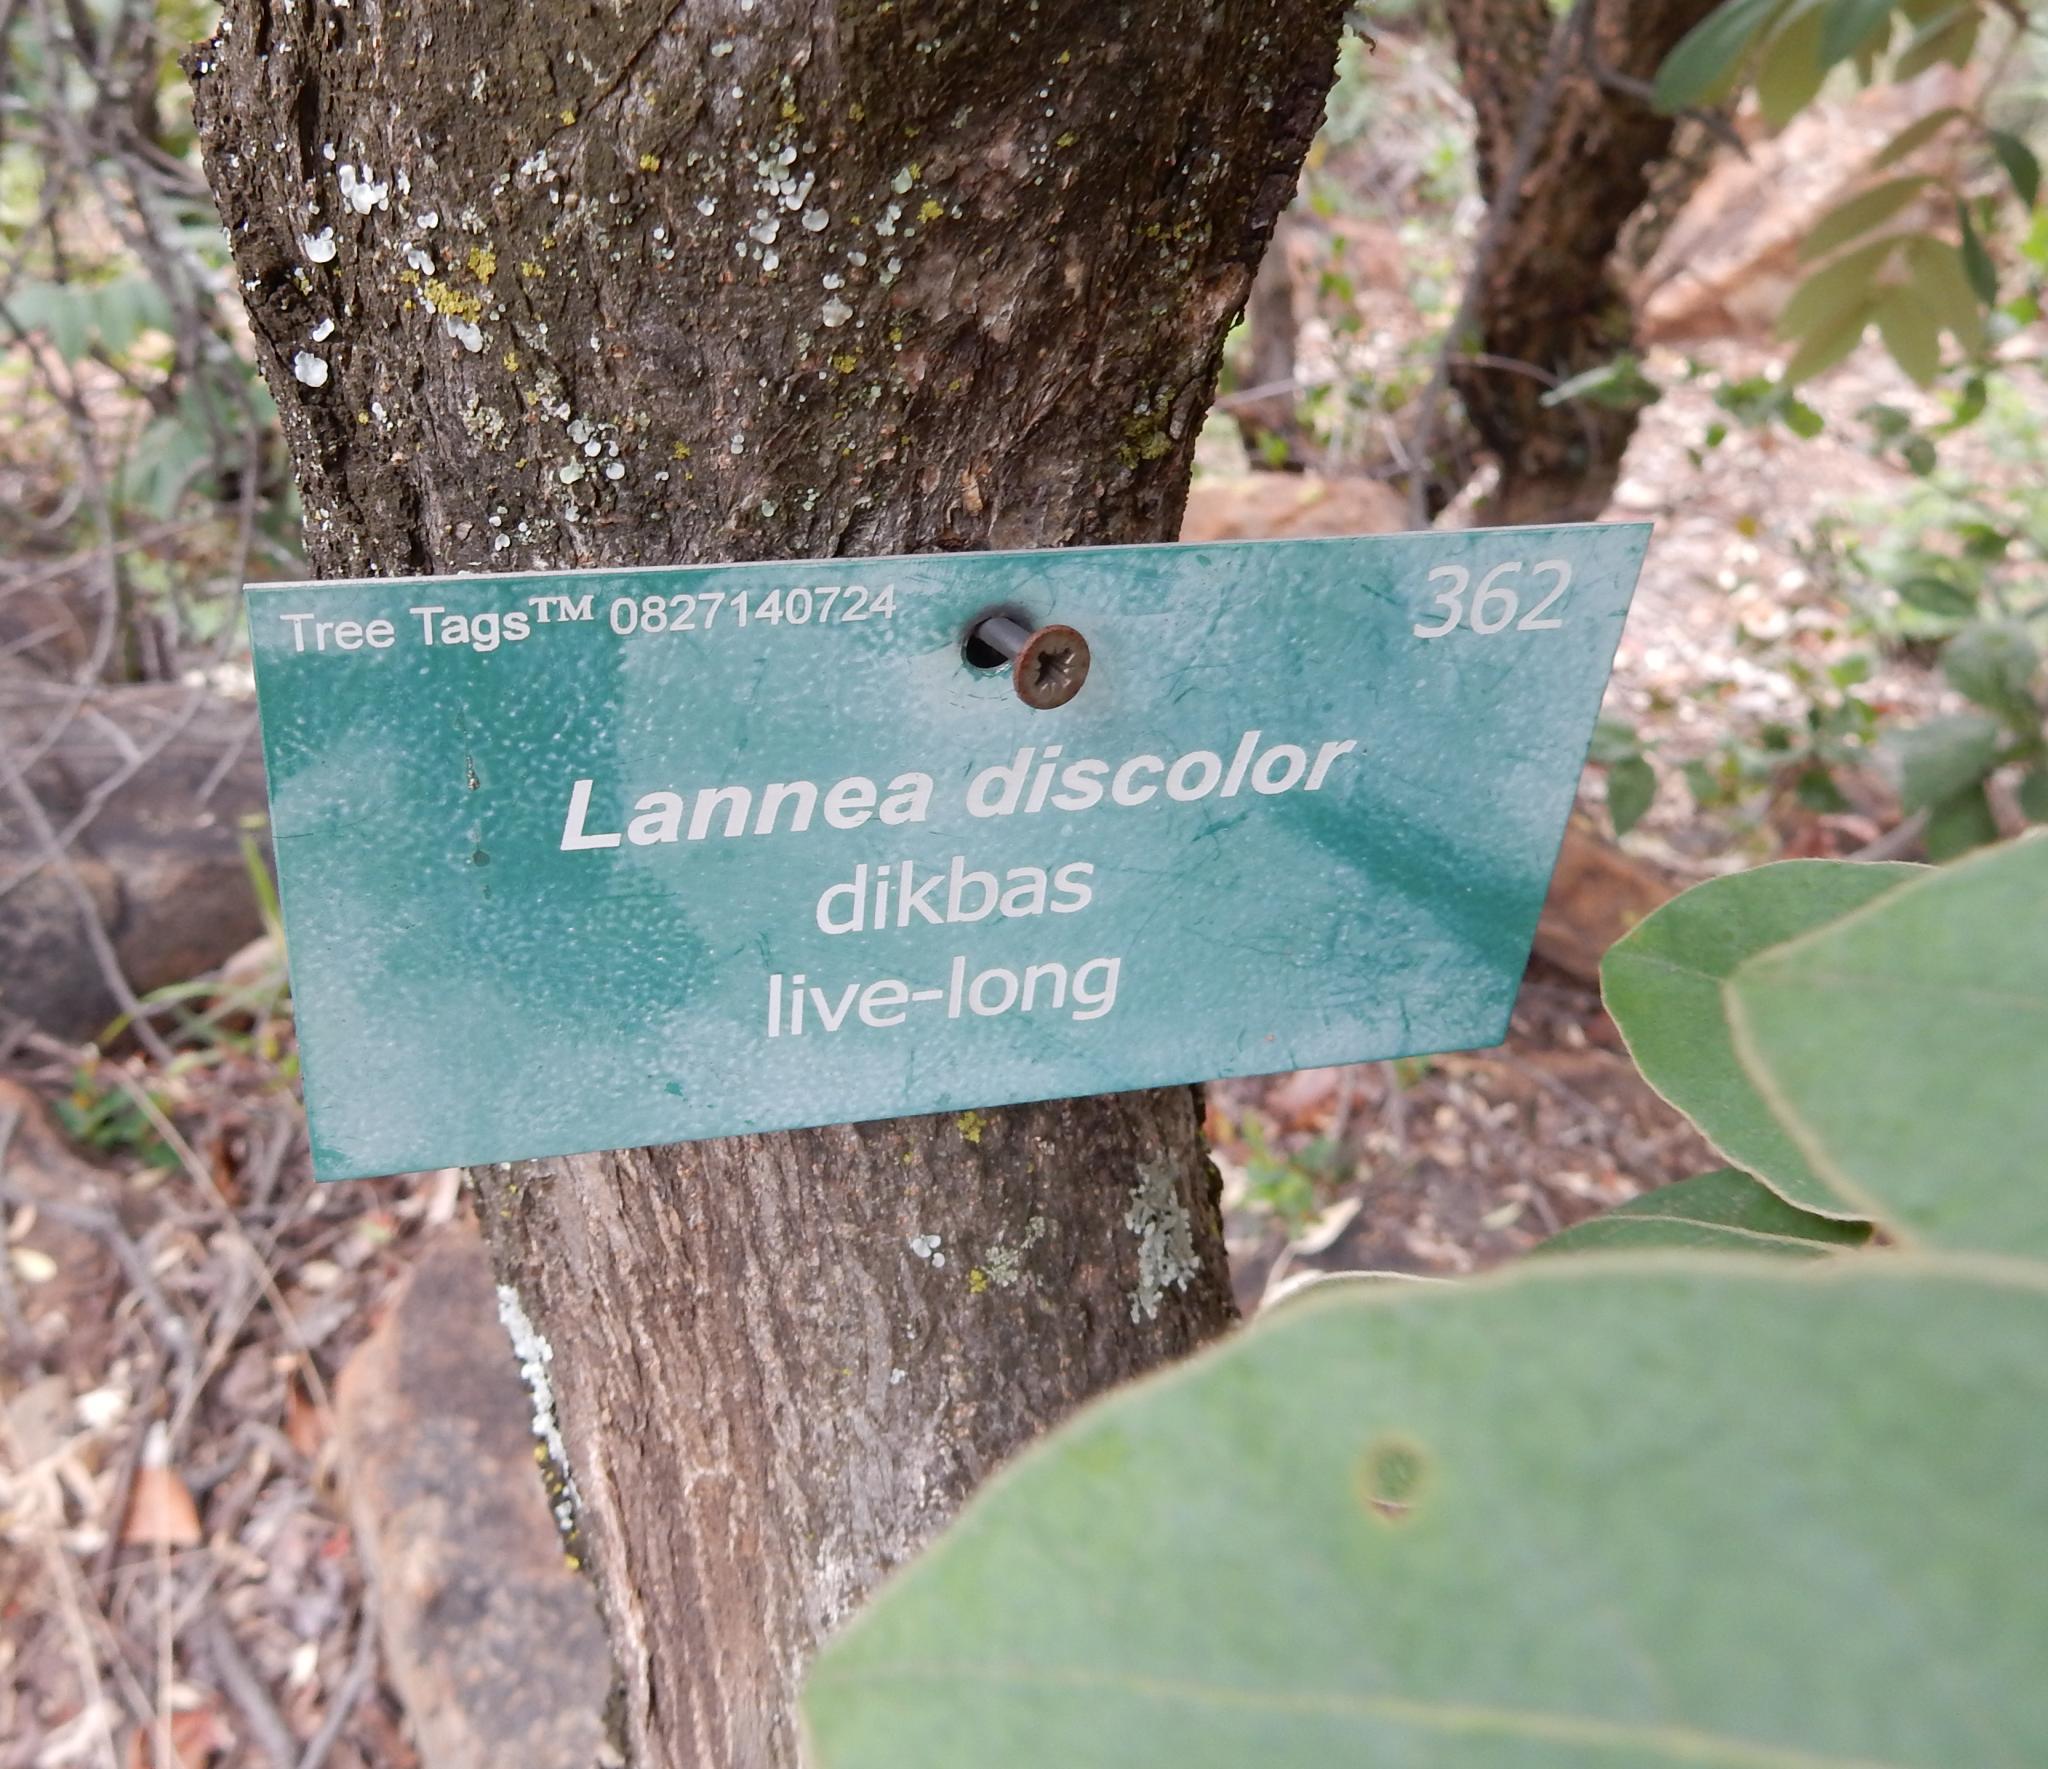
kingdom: Plantae
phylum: Tracheophyta
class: Magnoliopsida
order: Sapindales
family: Anacardiaceae
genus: Lannea
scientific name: Lannea discolor
